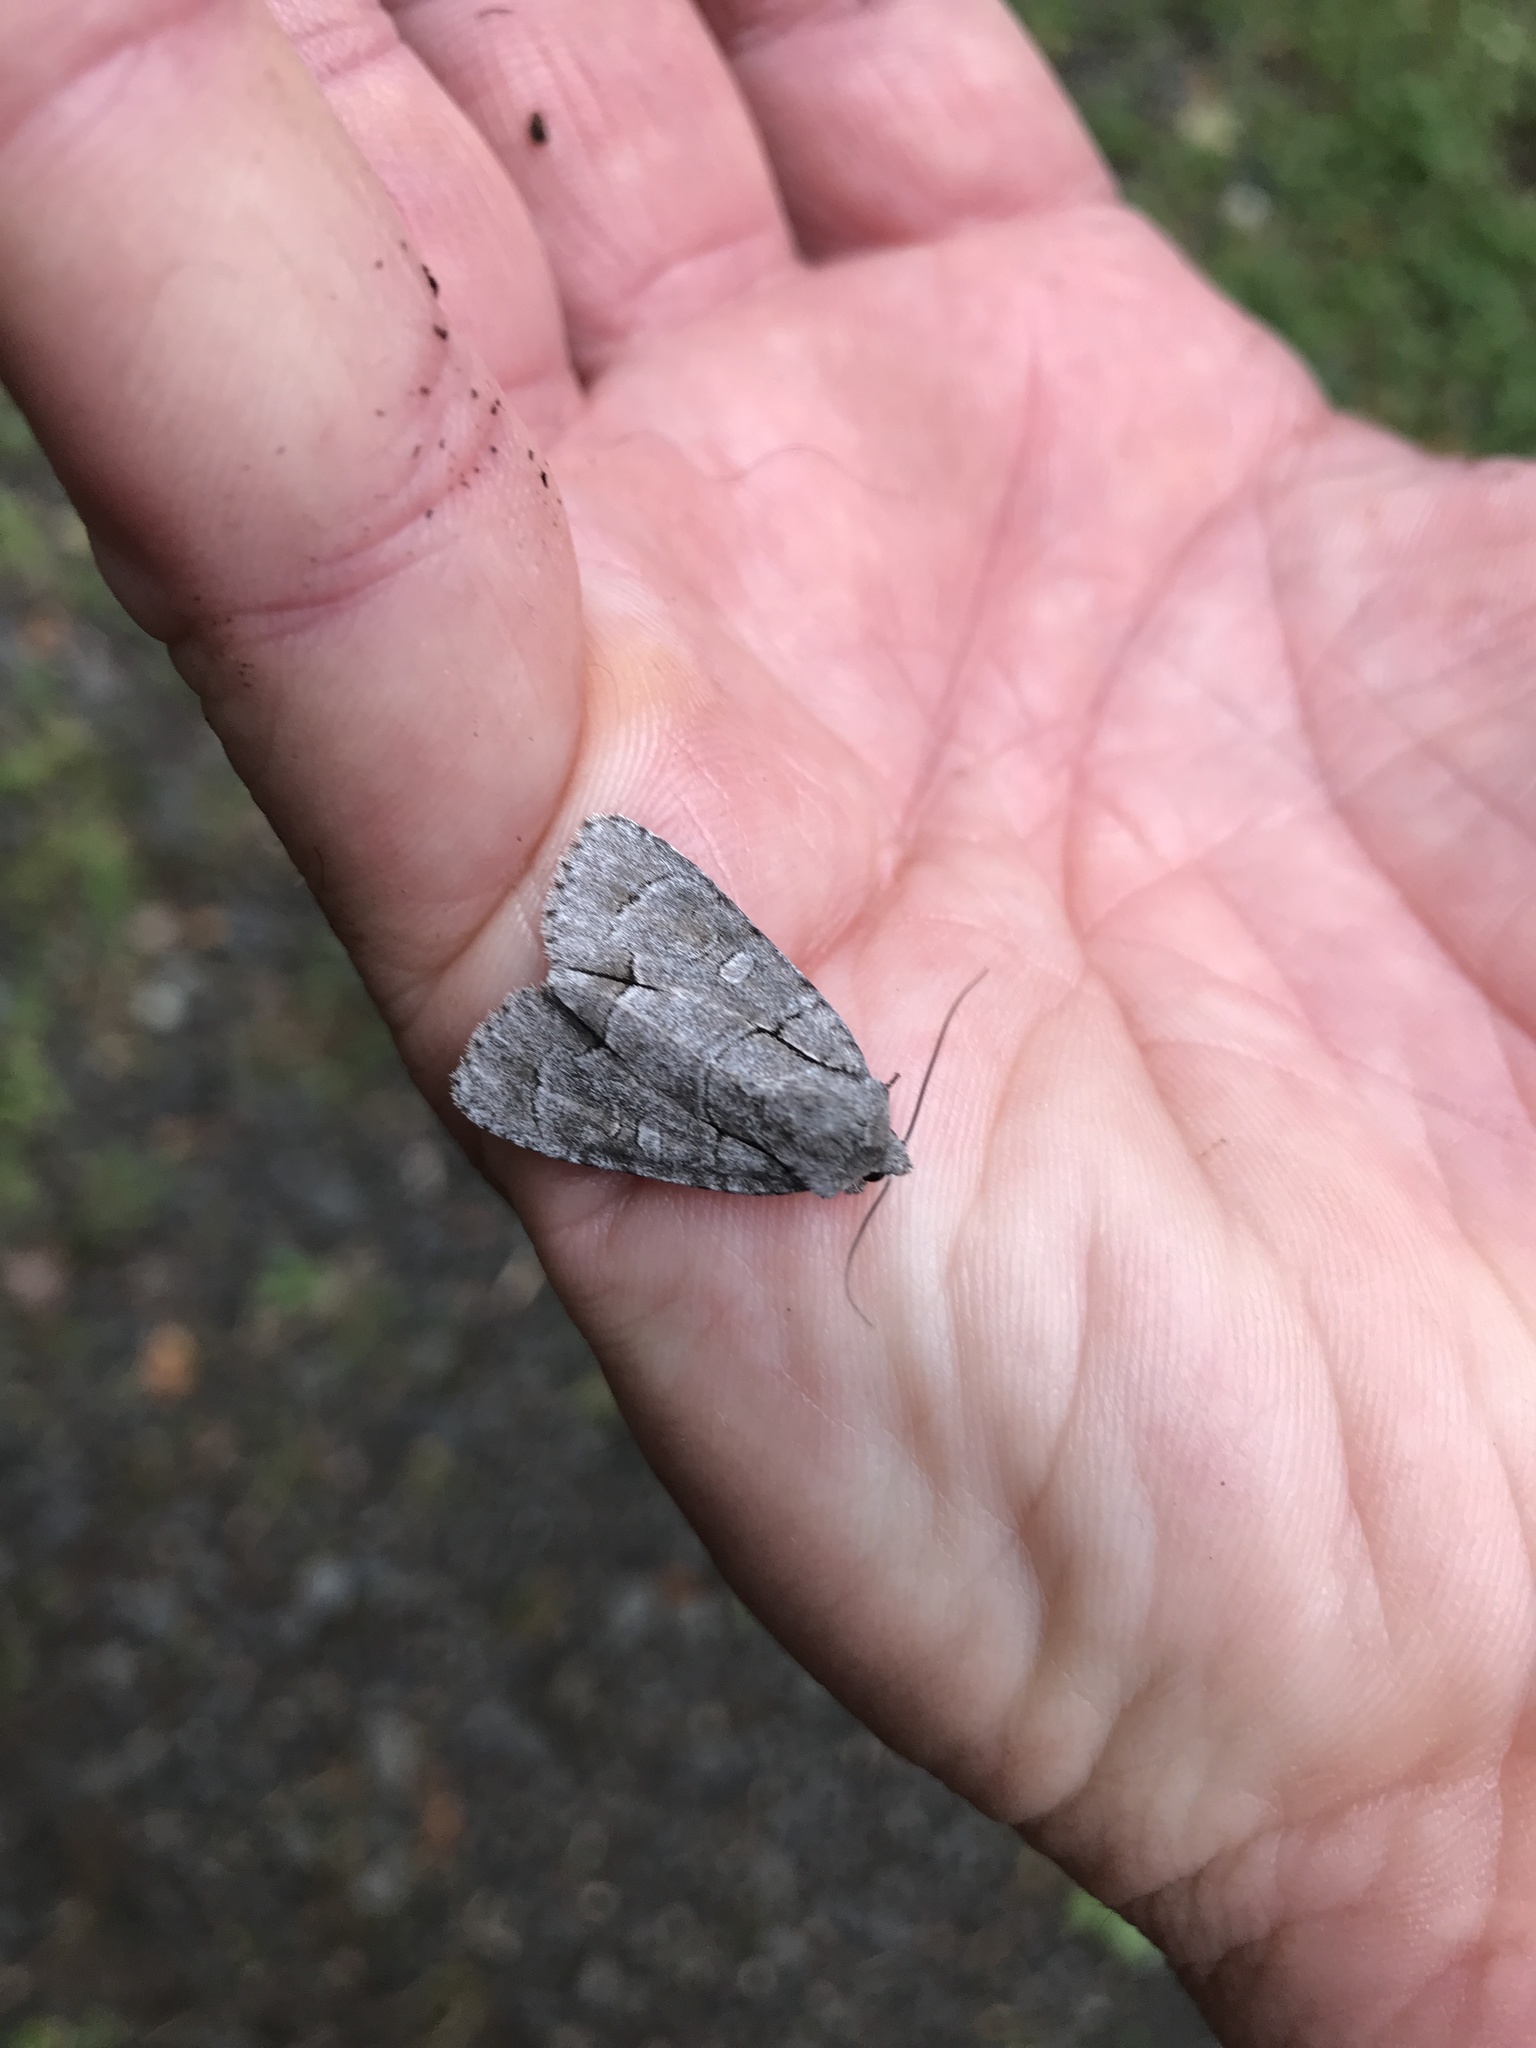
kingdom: Animalia
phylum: Arthropoda
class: Insecta
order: Lepidoptera
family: Noctuidae
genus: Acronicta
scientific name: Acronicta radcliffei
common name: Radcliffe's dagger
